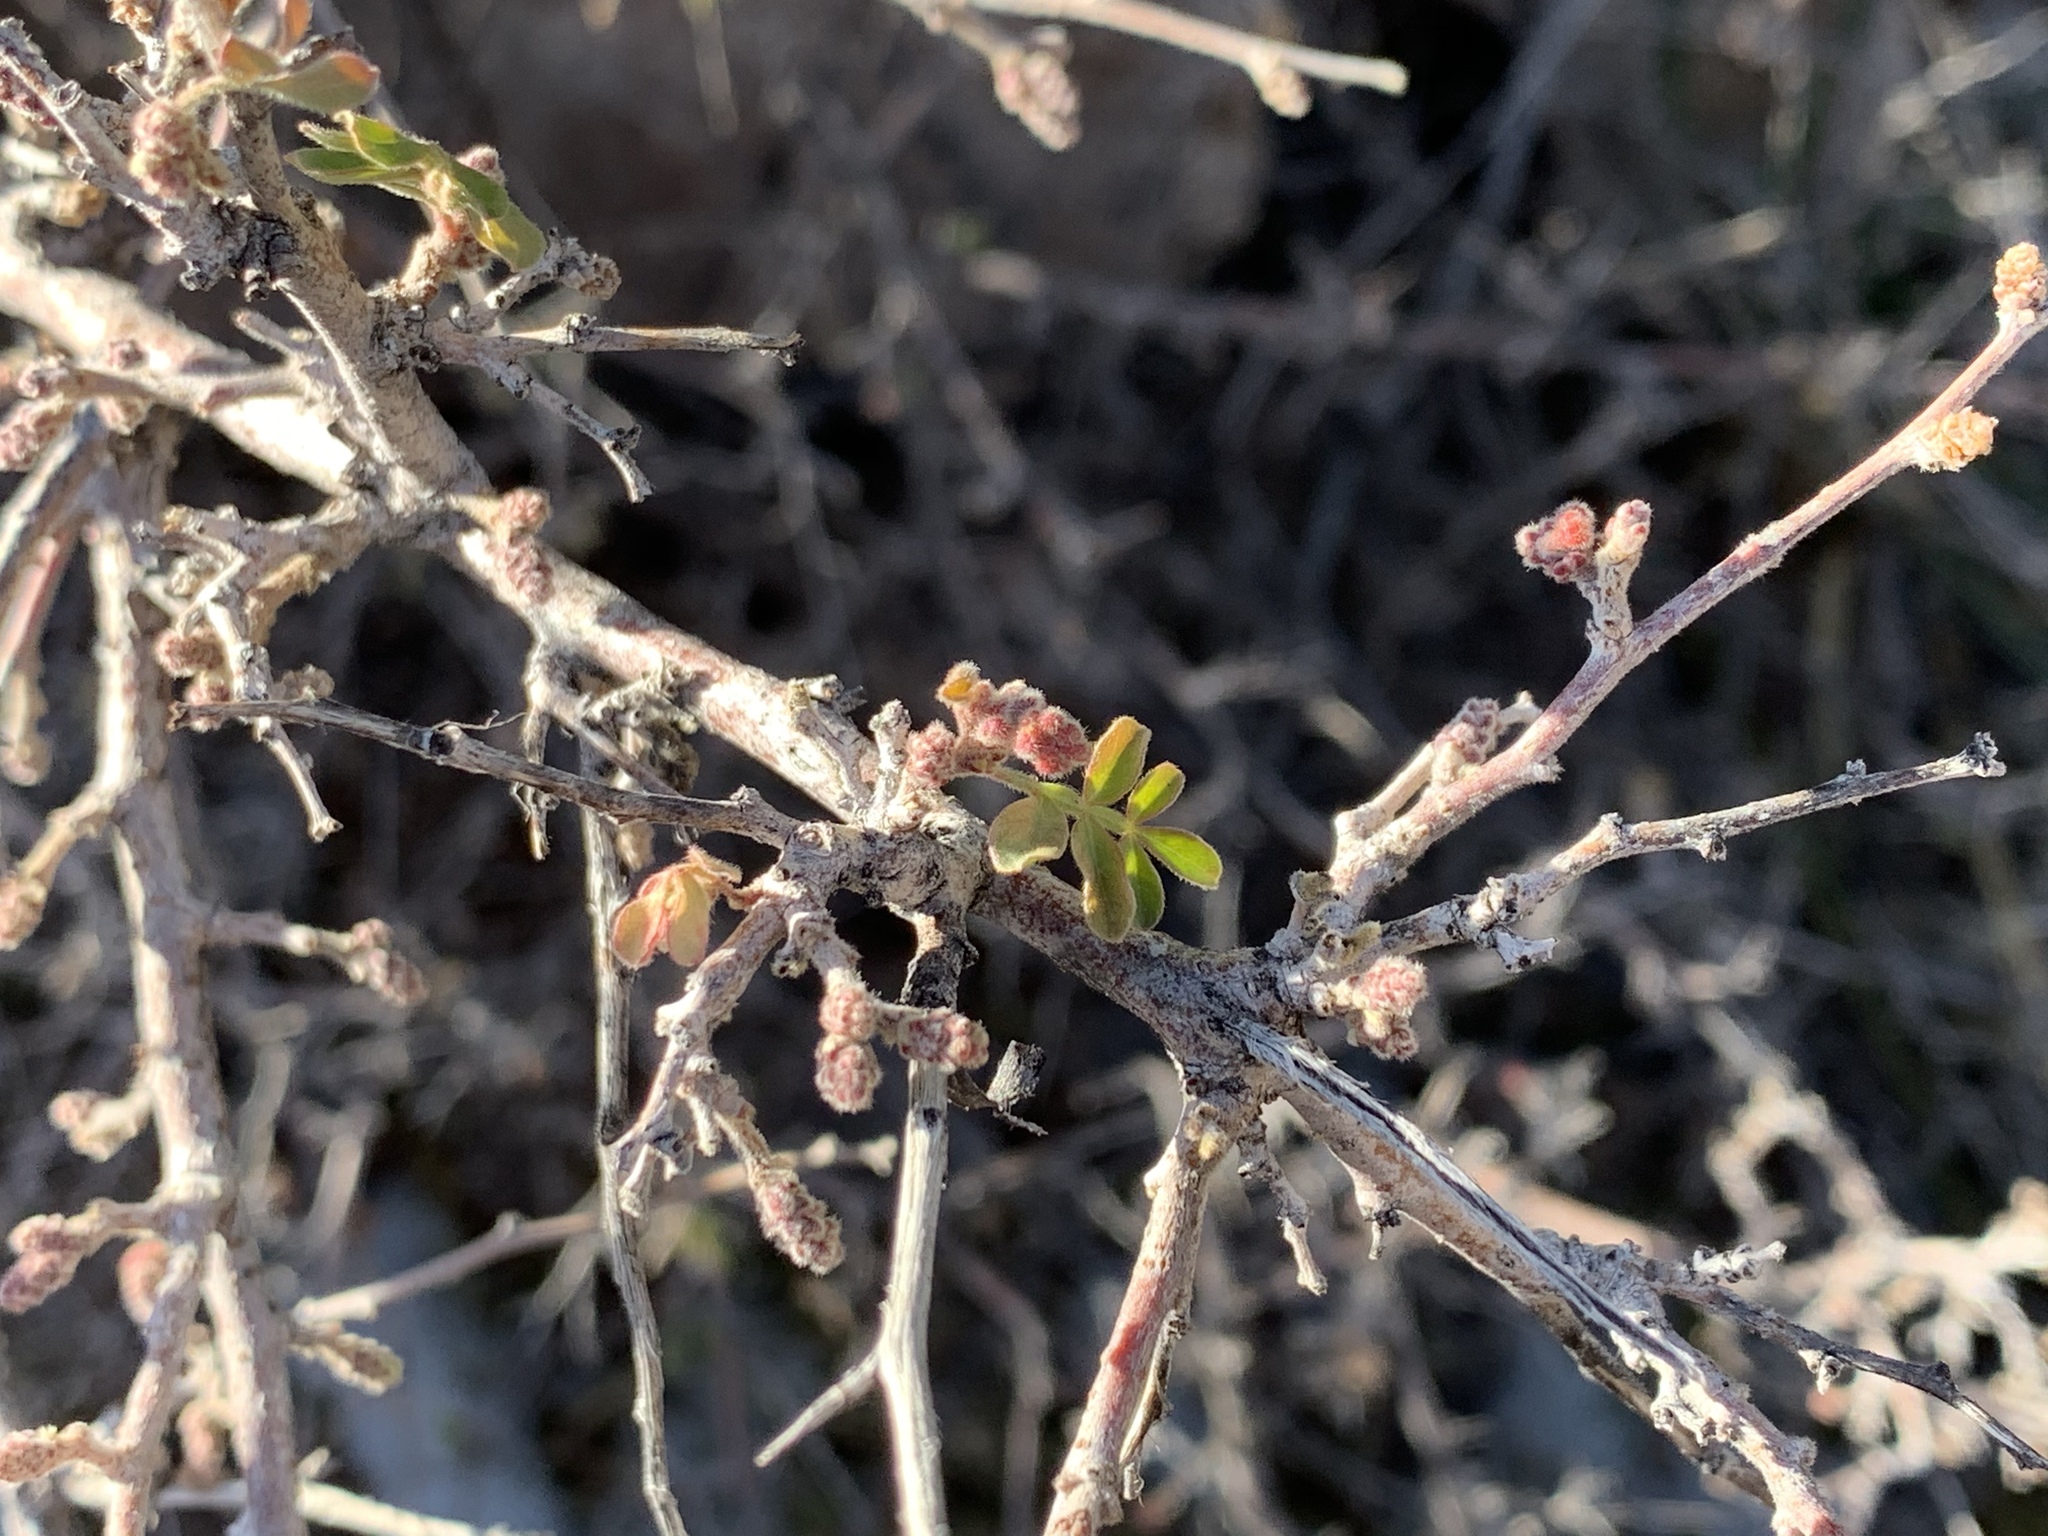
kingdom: Plantae
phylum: Tracheophyta
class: Magnoliopsida
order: Sapindales
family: Anacardiaceae
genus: Rhus
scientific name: Rhus microphylla
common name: Desert sumac
